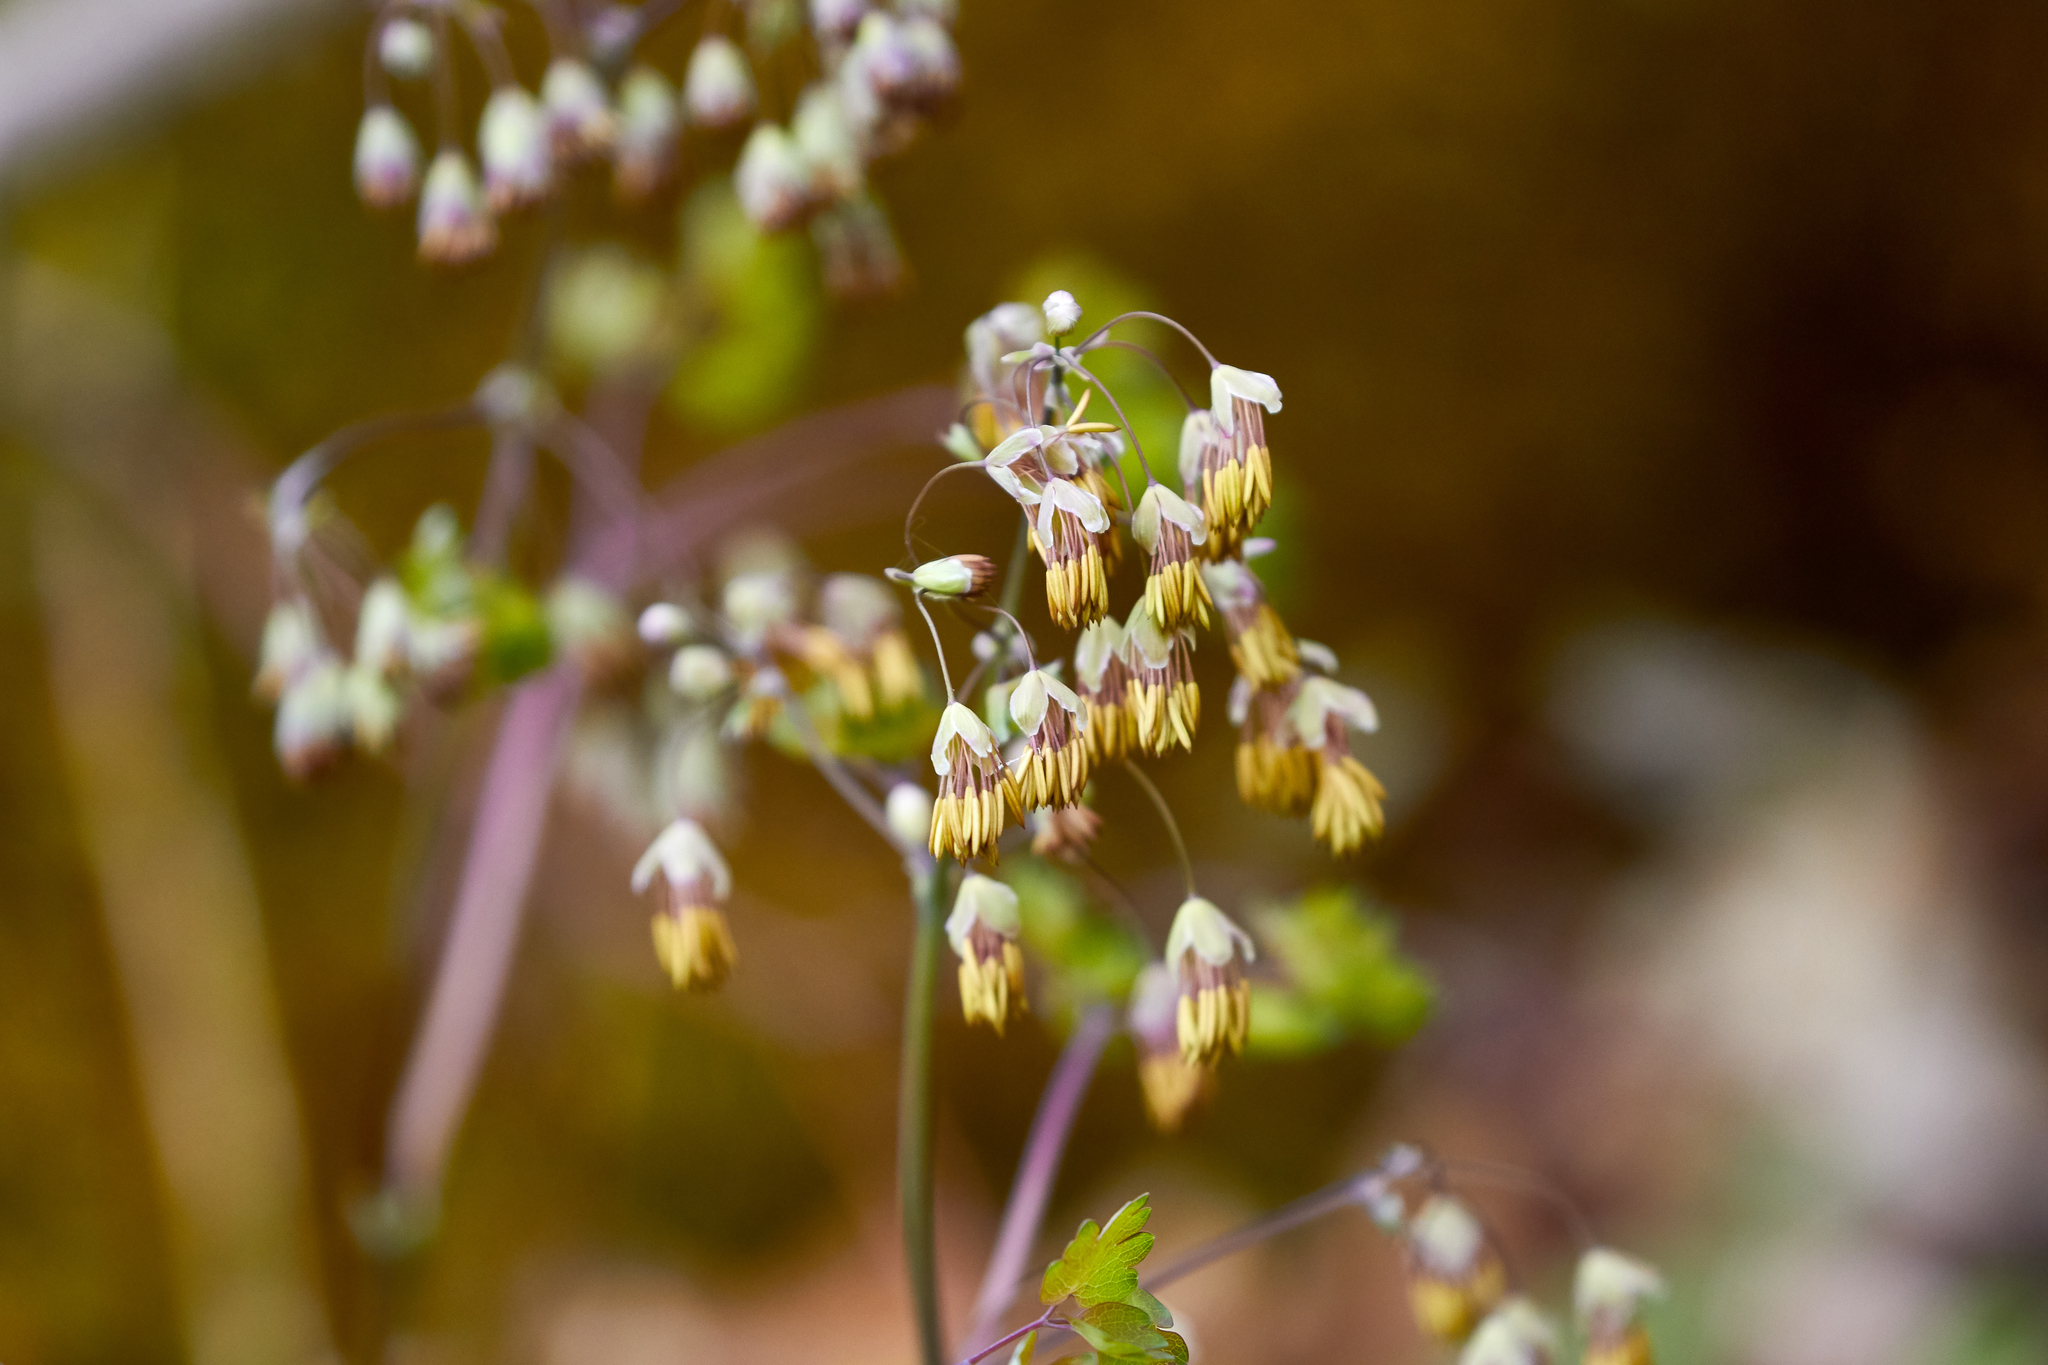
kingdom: Plantae
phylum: Tracheophyta
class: Magnoliopsida
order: Ranunculales
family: Ranunculaceae
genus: Thalictrum
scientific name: Thalictrum dioicum
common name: Early meadow-rue
